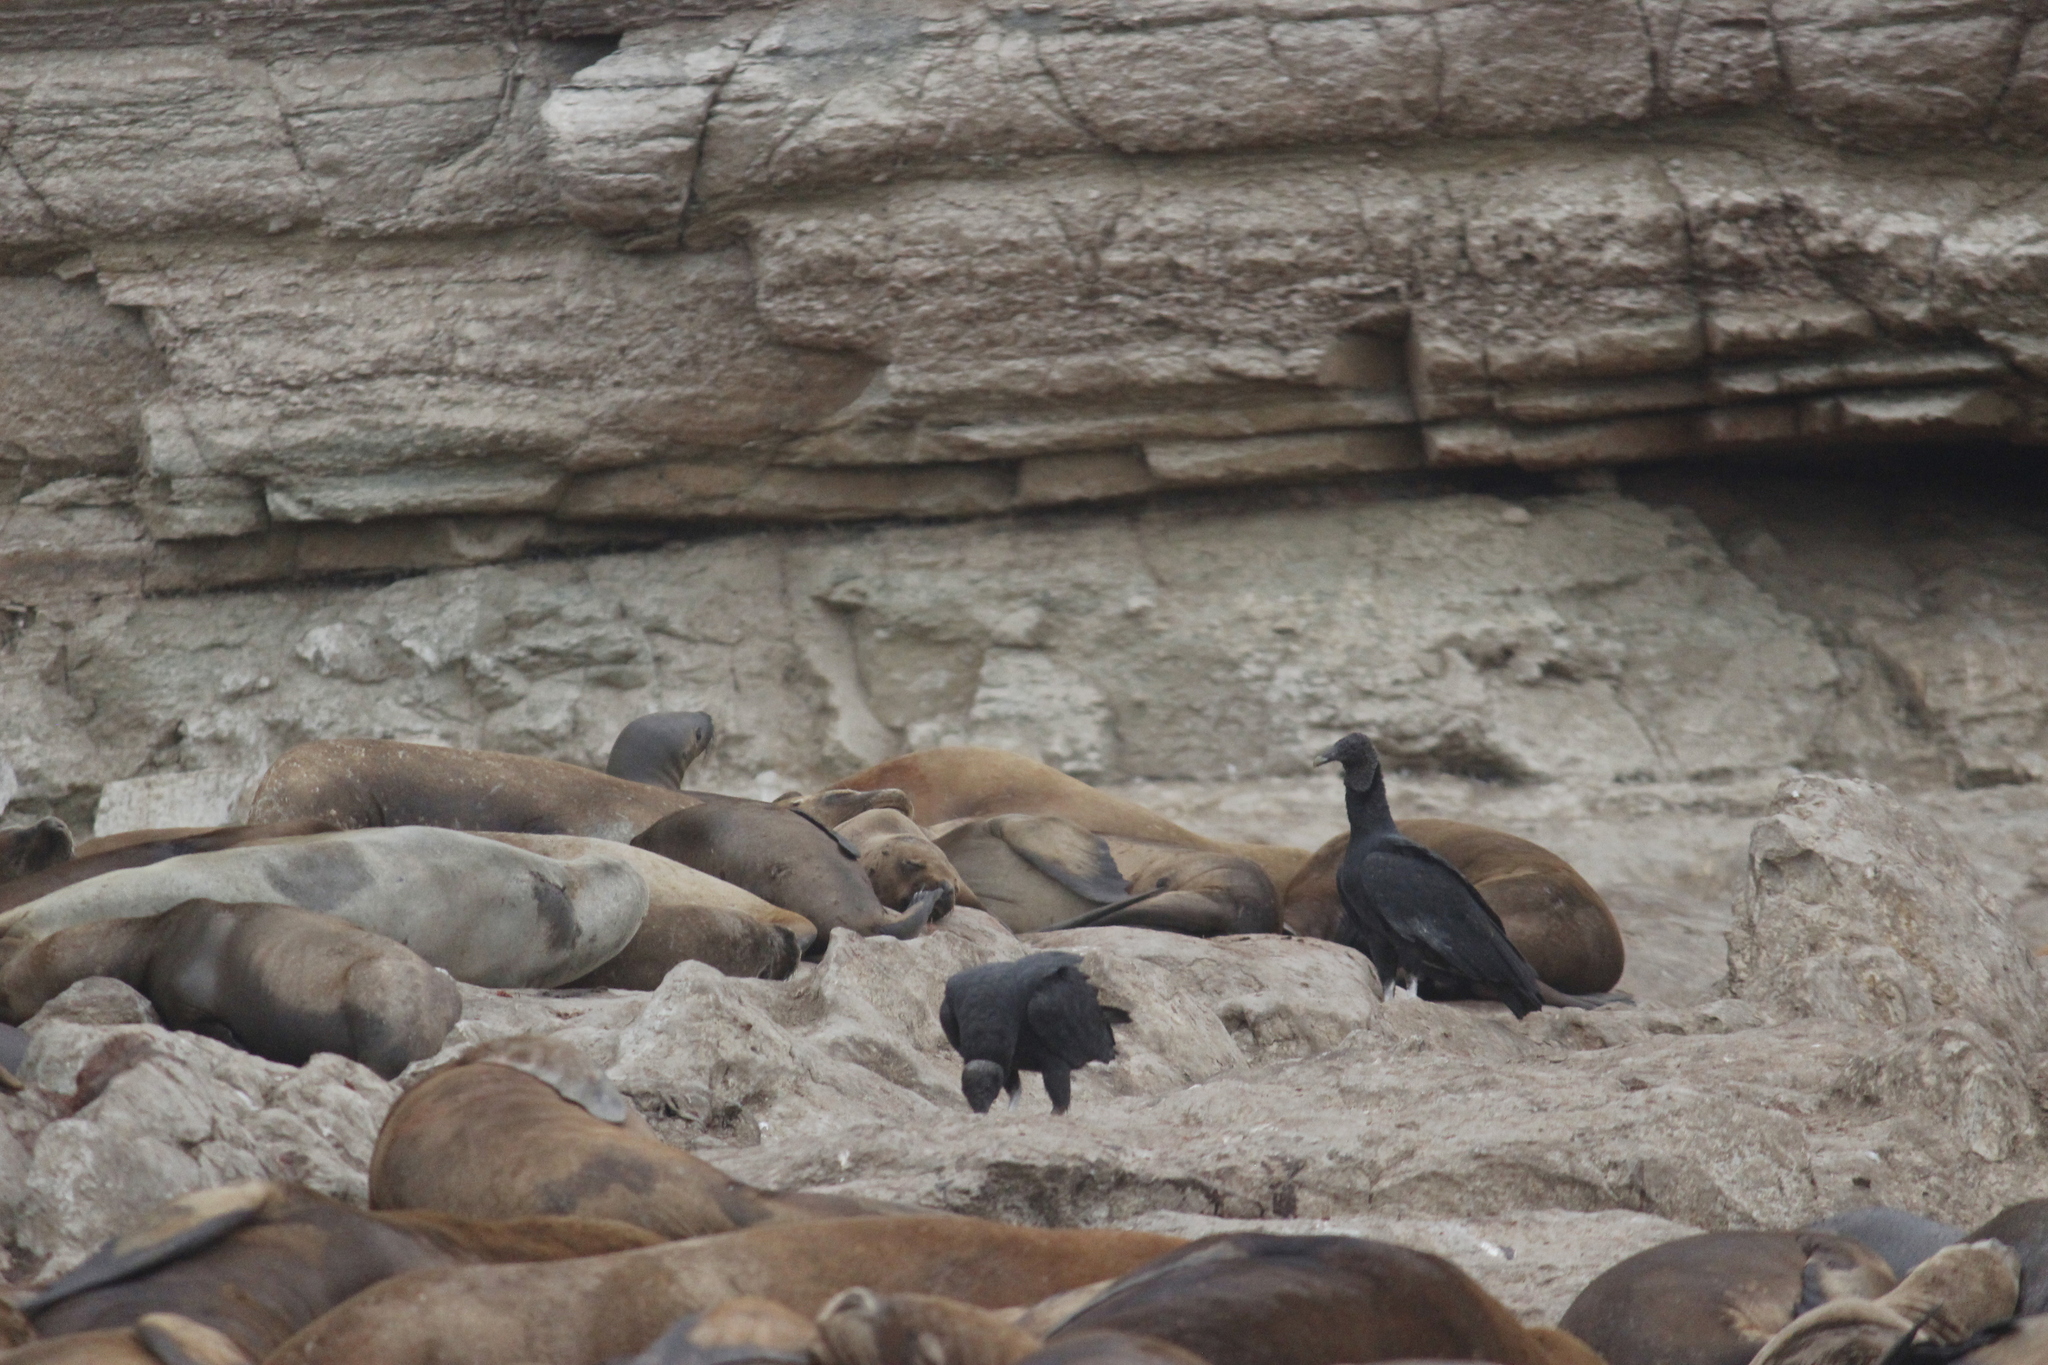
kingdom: Animalia
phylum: Chordata
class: Aves
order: Accipitriformes
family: Cathartidae
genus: Coragyps
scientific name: Coragyps atratus
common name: Black vulture
